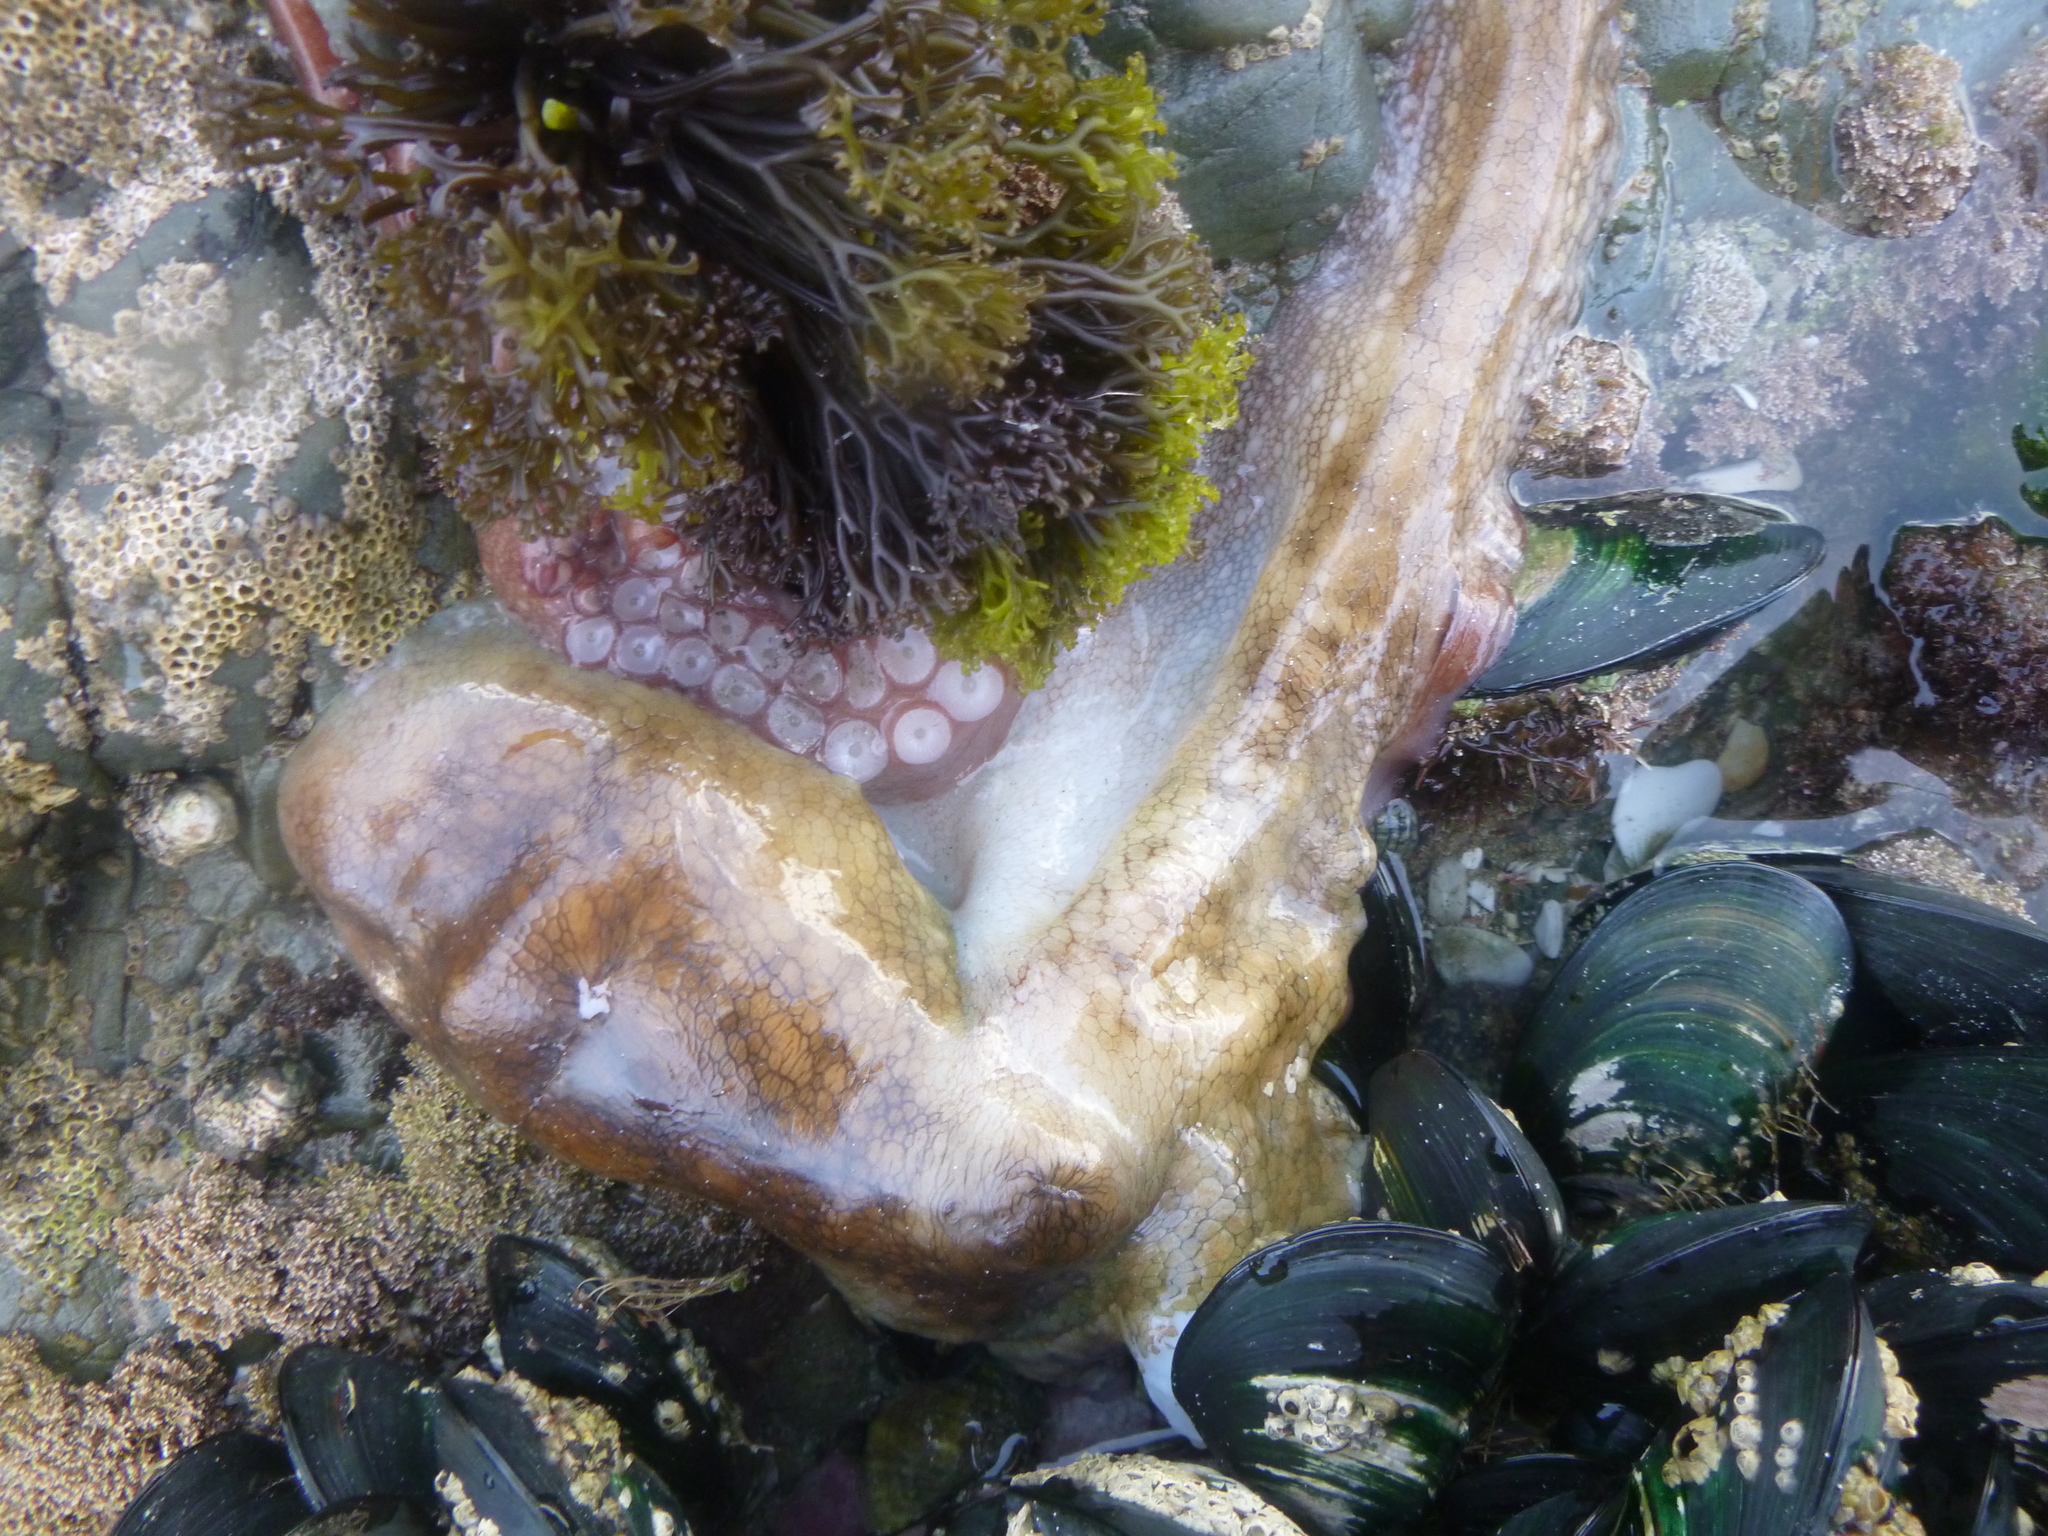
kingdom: Animalia
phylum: Mollusca
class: Cephalopoda
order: Octopoda
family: Octopodidae
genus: Octopus
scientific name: Octopus tetricus
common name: Sydney octopus
